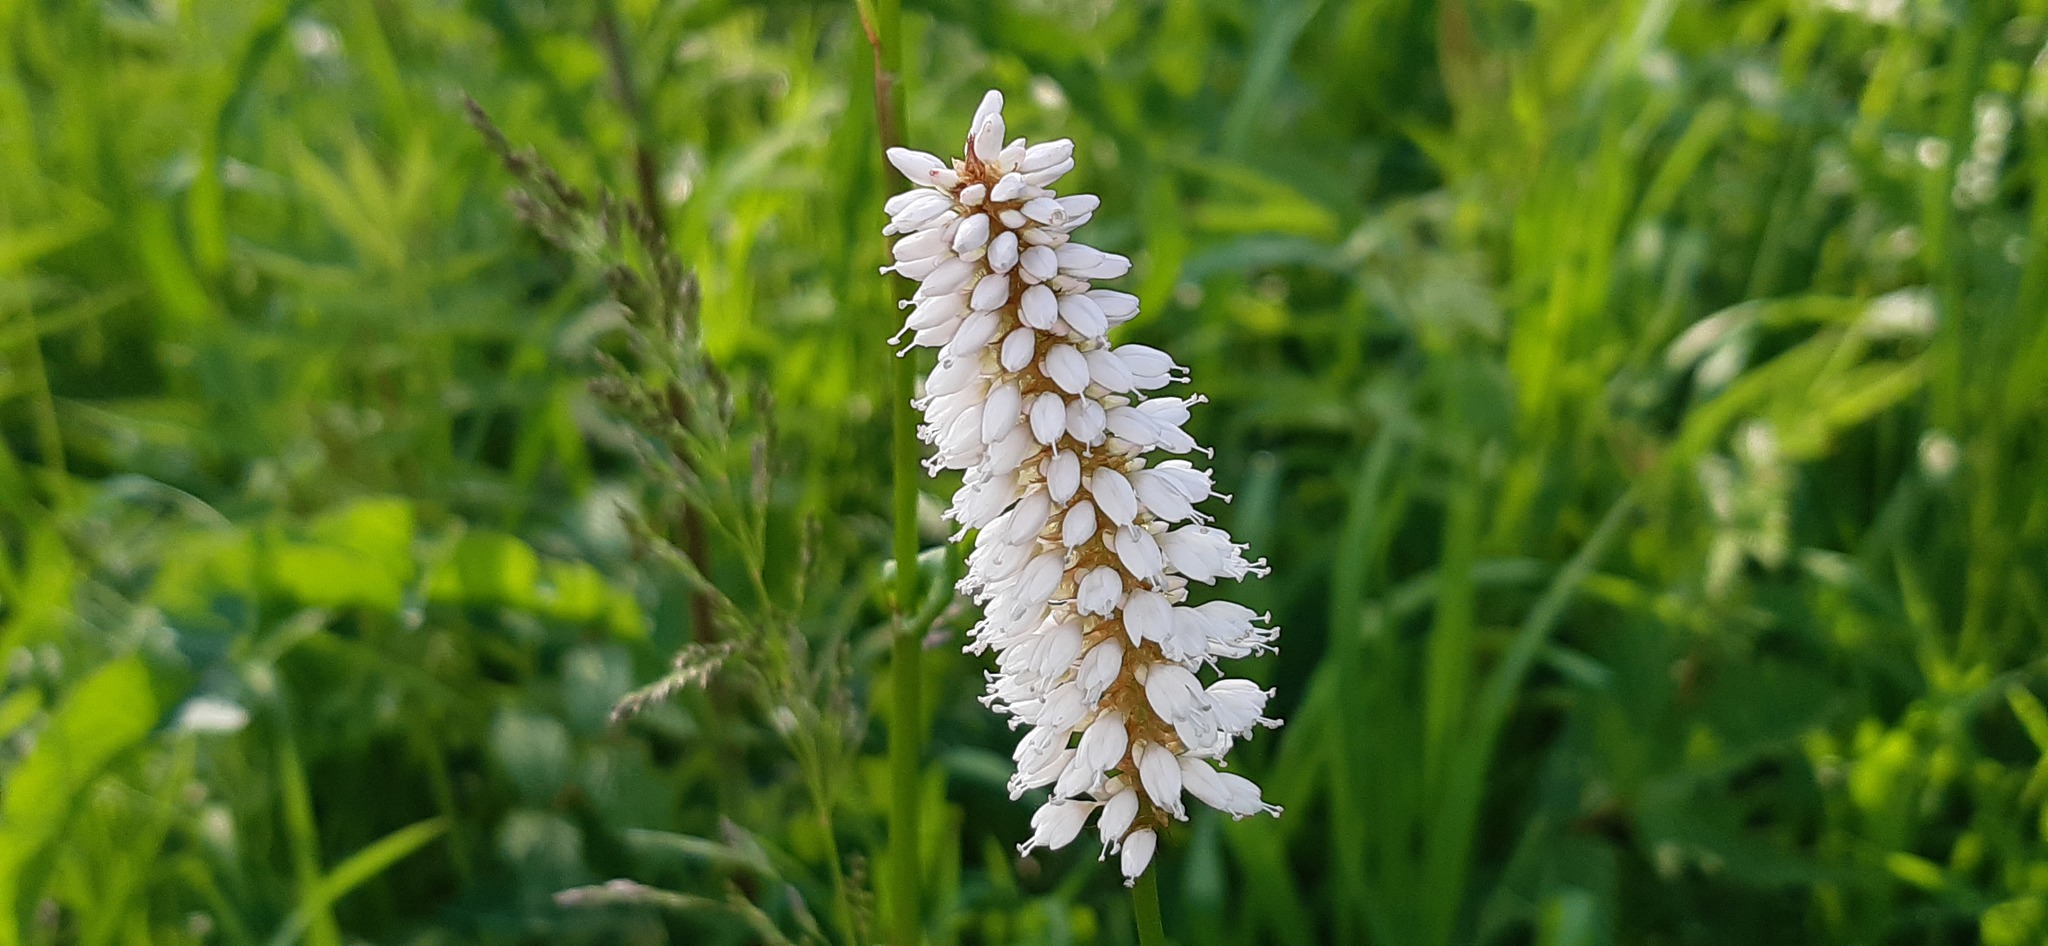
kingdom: Plantae
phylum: Tracheophyta
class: Magnoliopsida
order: Caryophyllales
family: Polygonaceae
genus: Bistorta
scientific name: Bistorta officinalis
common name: Common bistort
